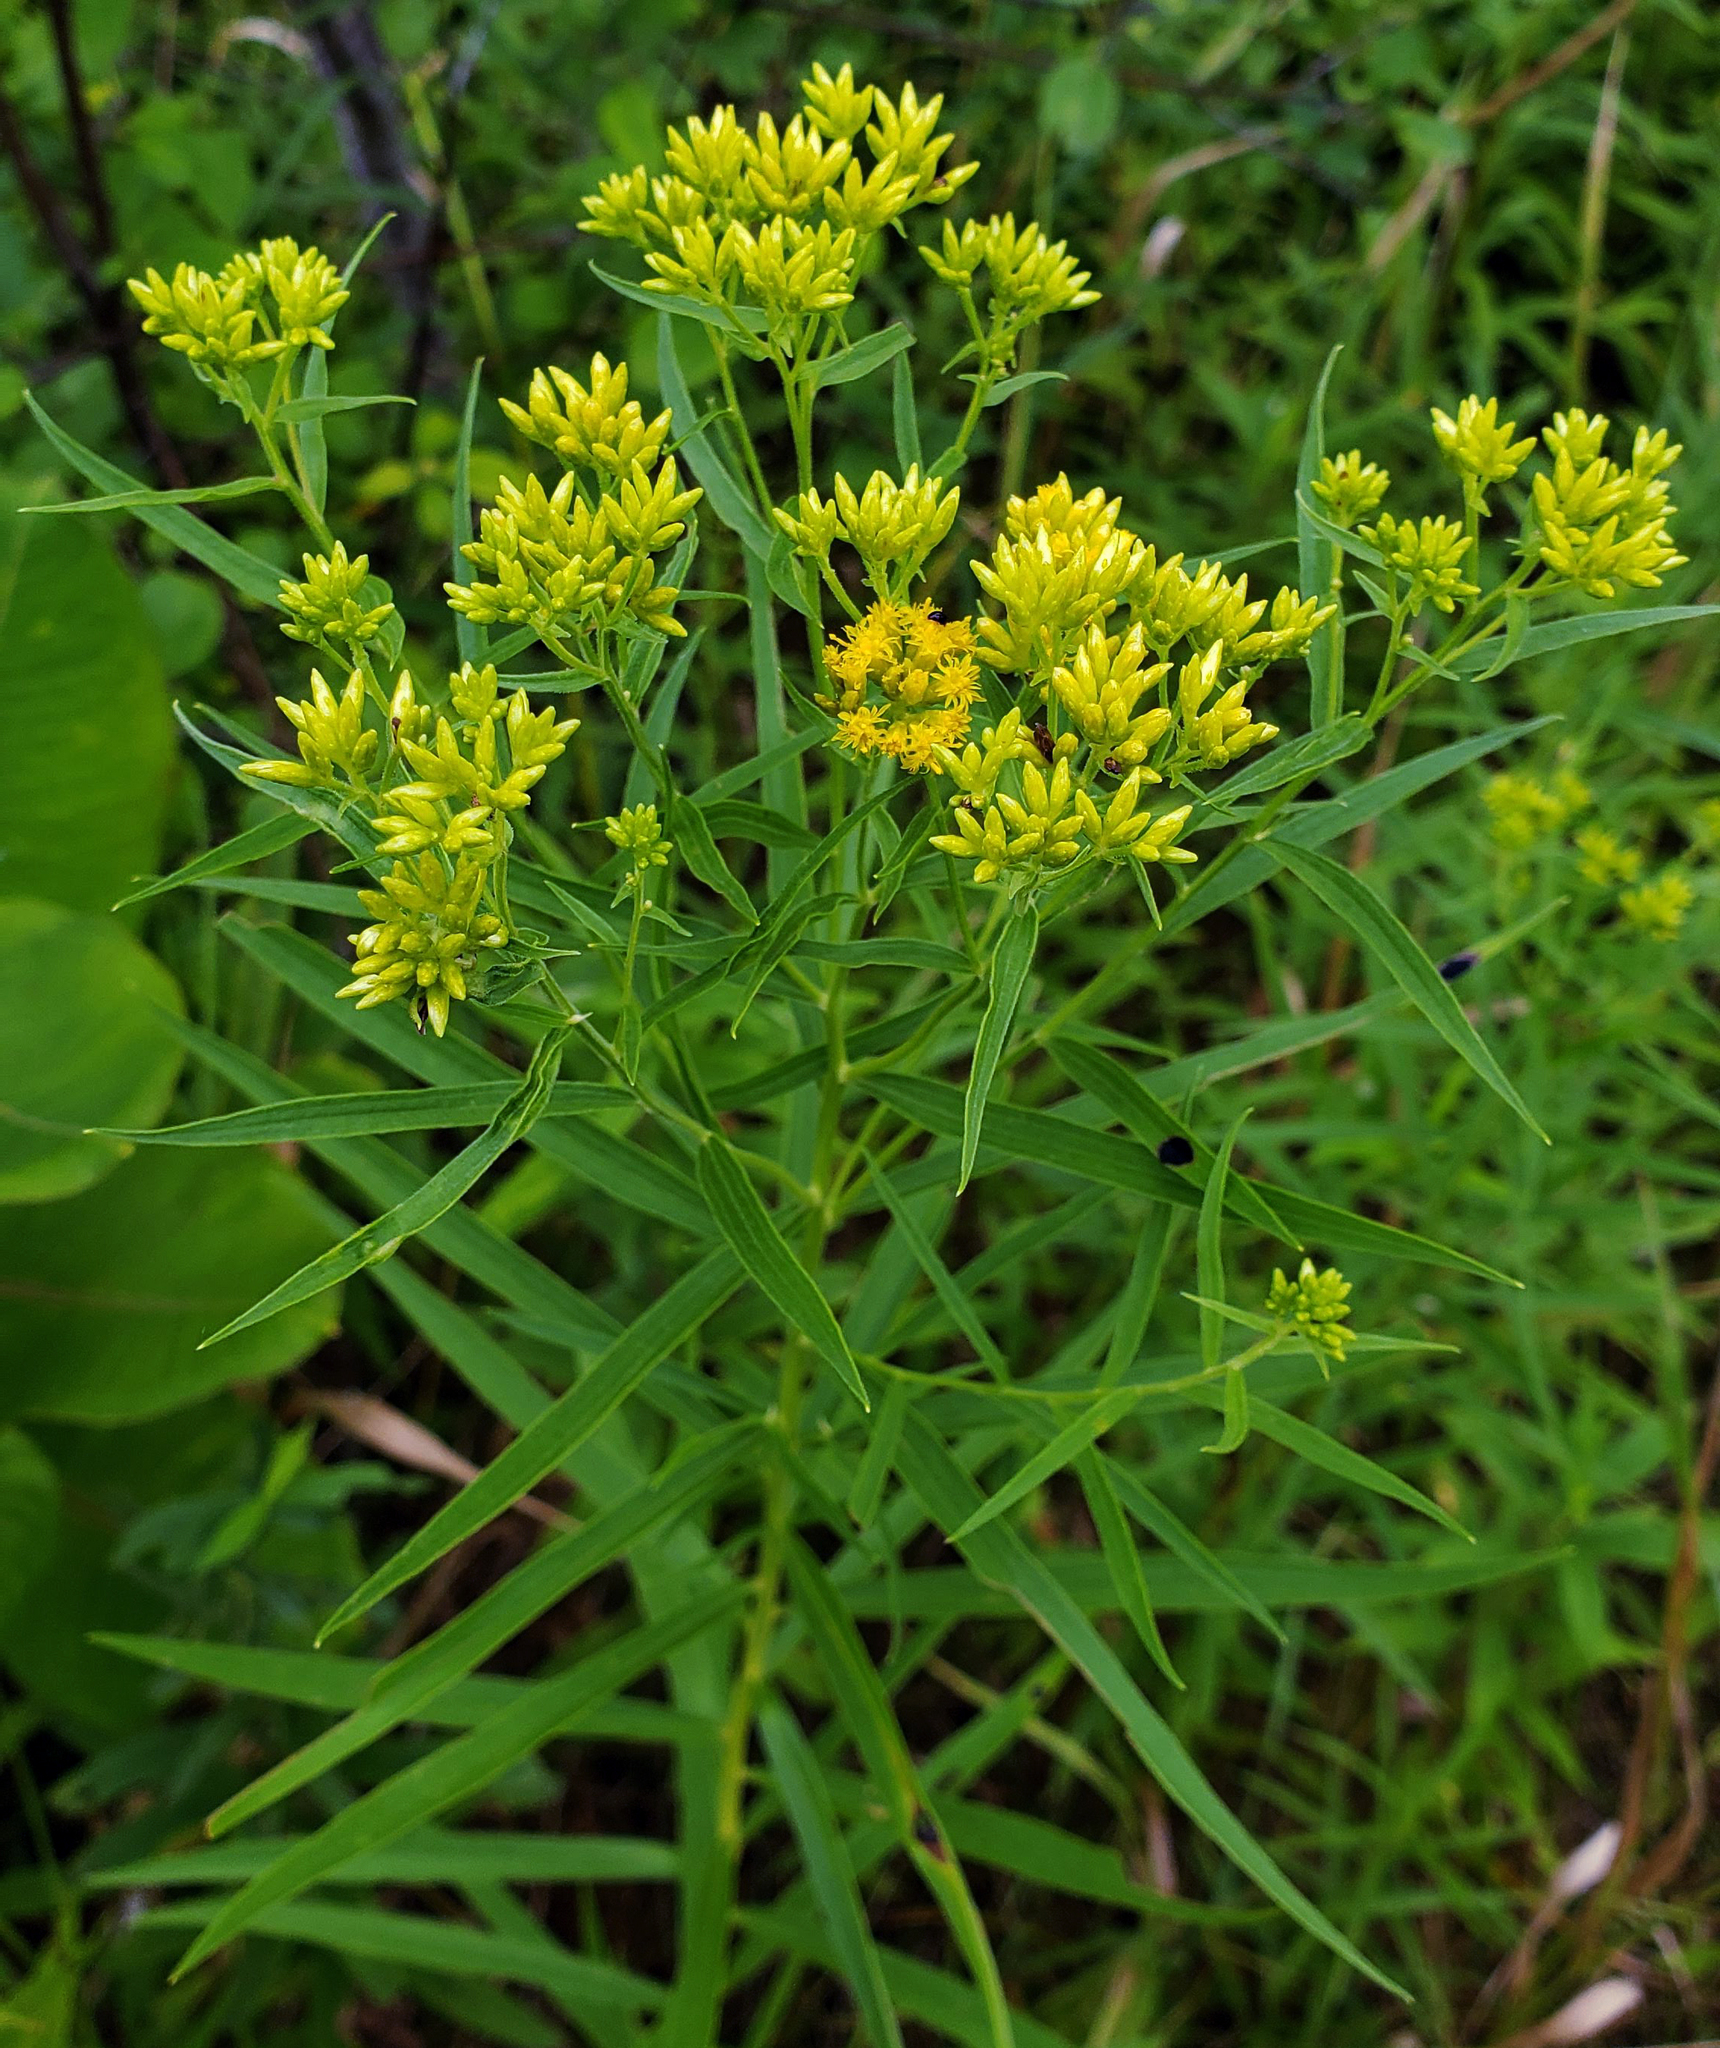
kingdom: Plantae
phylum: Tracheophyta
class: Magnoliopsida
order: Asterales
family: Asteraceae
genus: Euthamia
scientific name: Euthamia graminifolia
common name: Common goldentop
